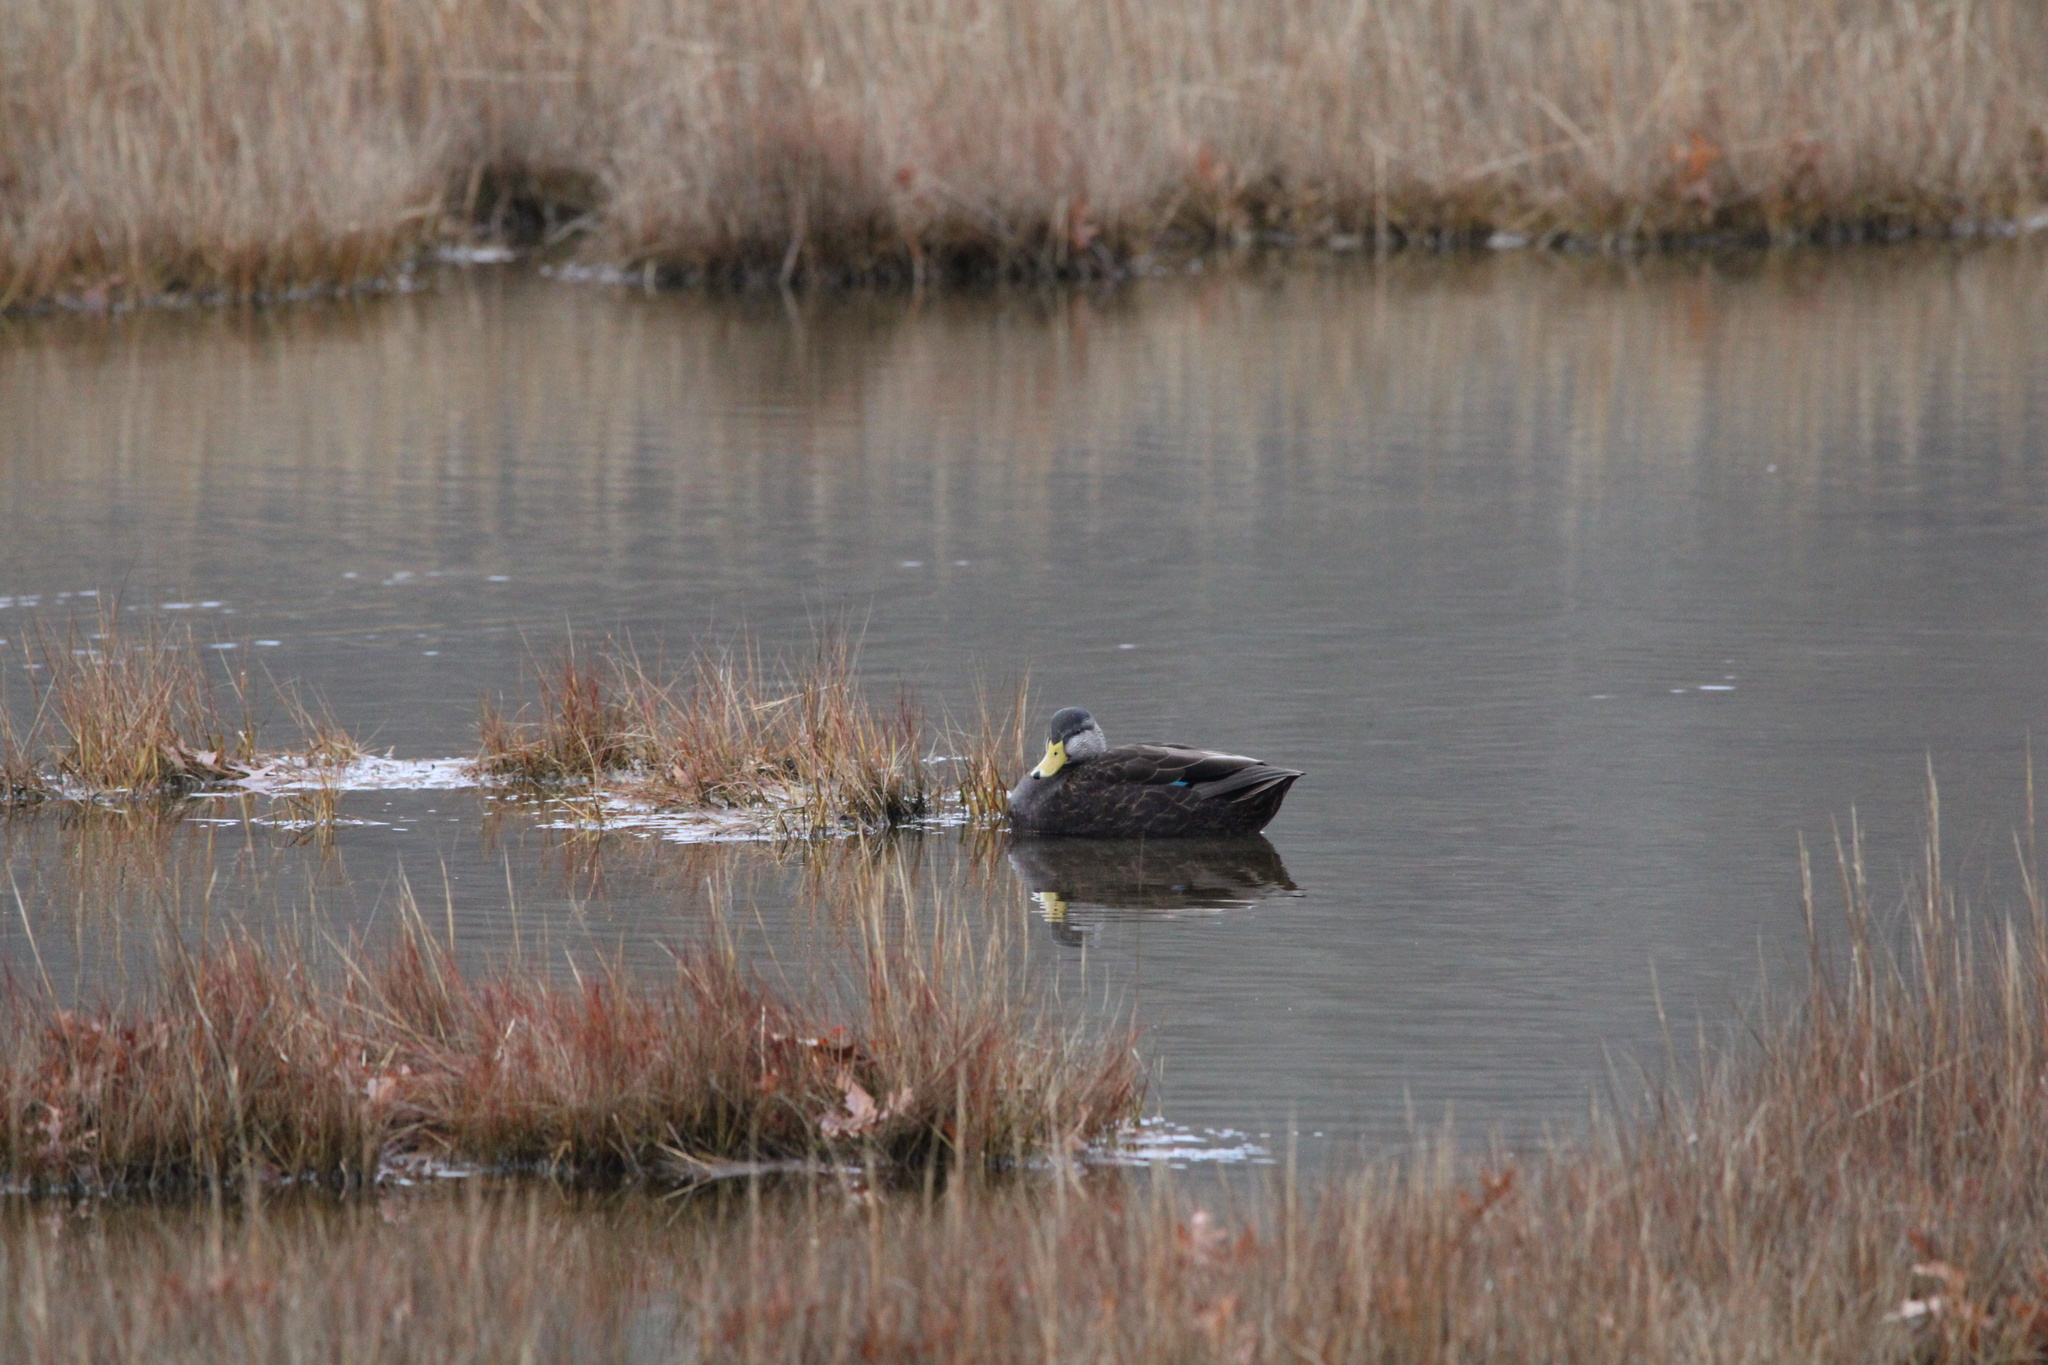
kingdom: Animalia
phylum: Chordata
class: Aves
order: Anseriformes
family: Anatidae
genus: Anas
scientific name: Anas rubripes
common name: American black duck
